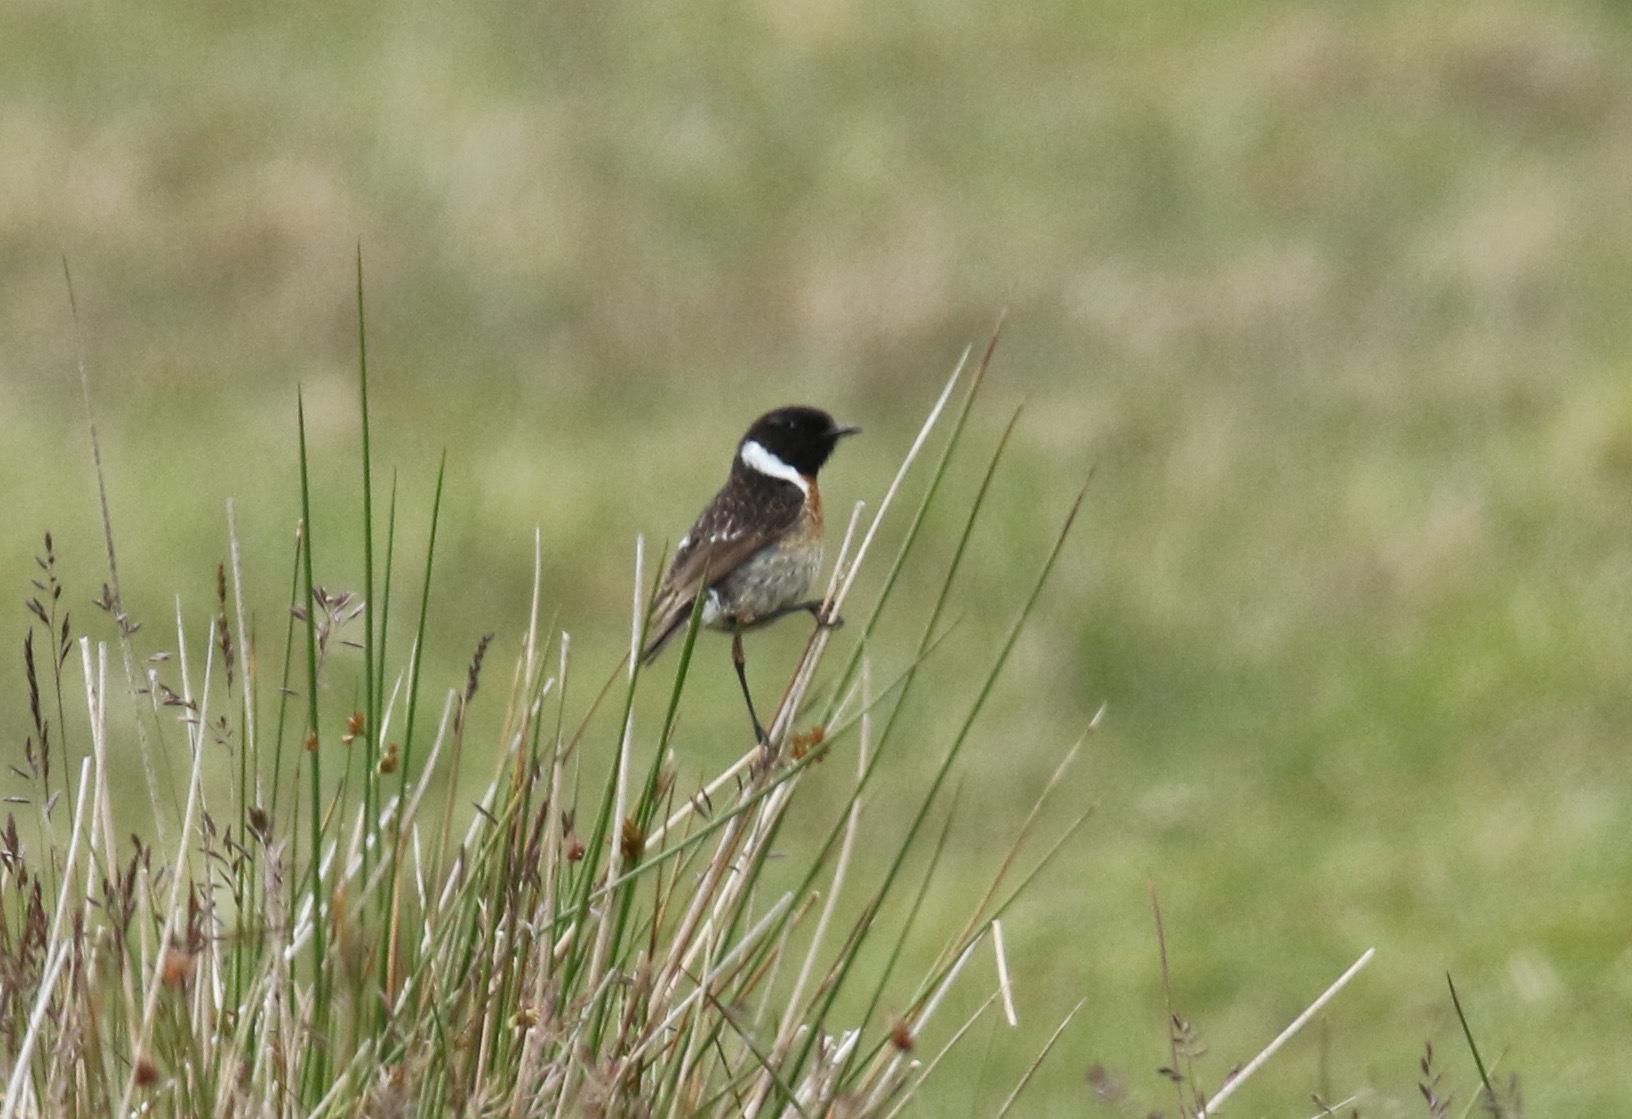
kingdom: Animalia
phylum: Chordata
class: Aves
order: Passeriformes
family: Muscicapidae
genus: Saxicola
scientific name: Saxicola rubicola
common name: European stonechat
